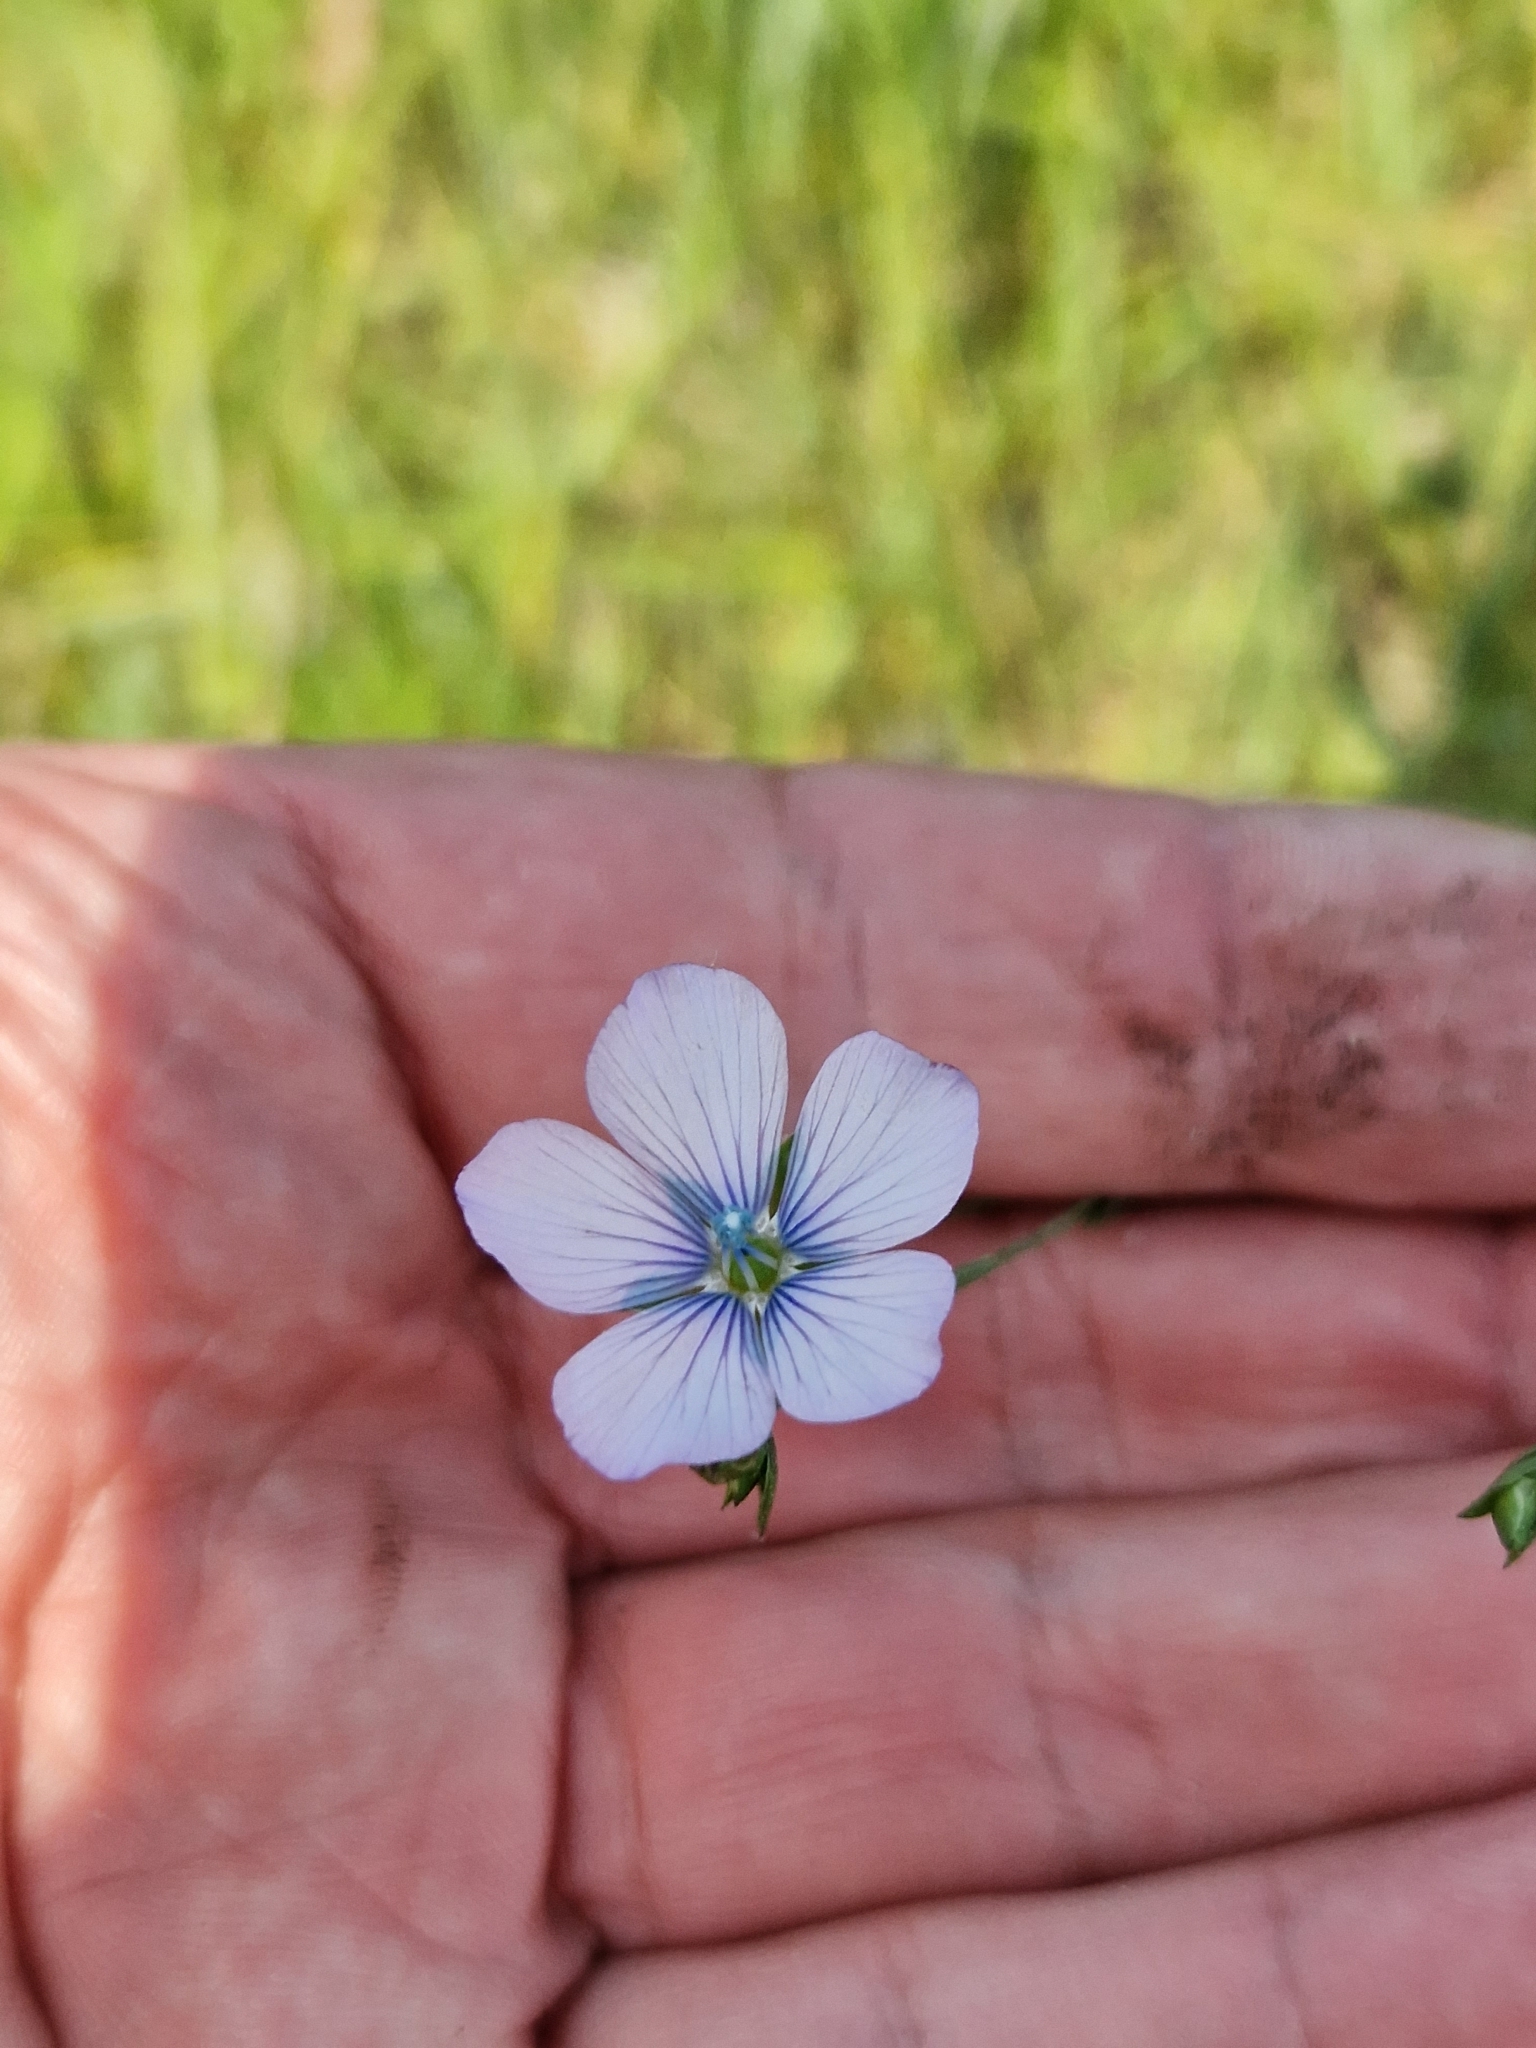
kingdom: Plantae
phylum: Tracheophyta
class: Magnoliopsida
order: Malpighiales
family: Linaceae
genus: Linum
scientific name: Linum bienne
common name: Pale flax
